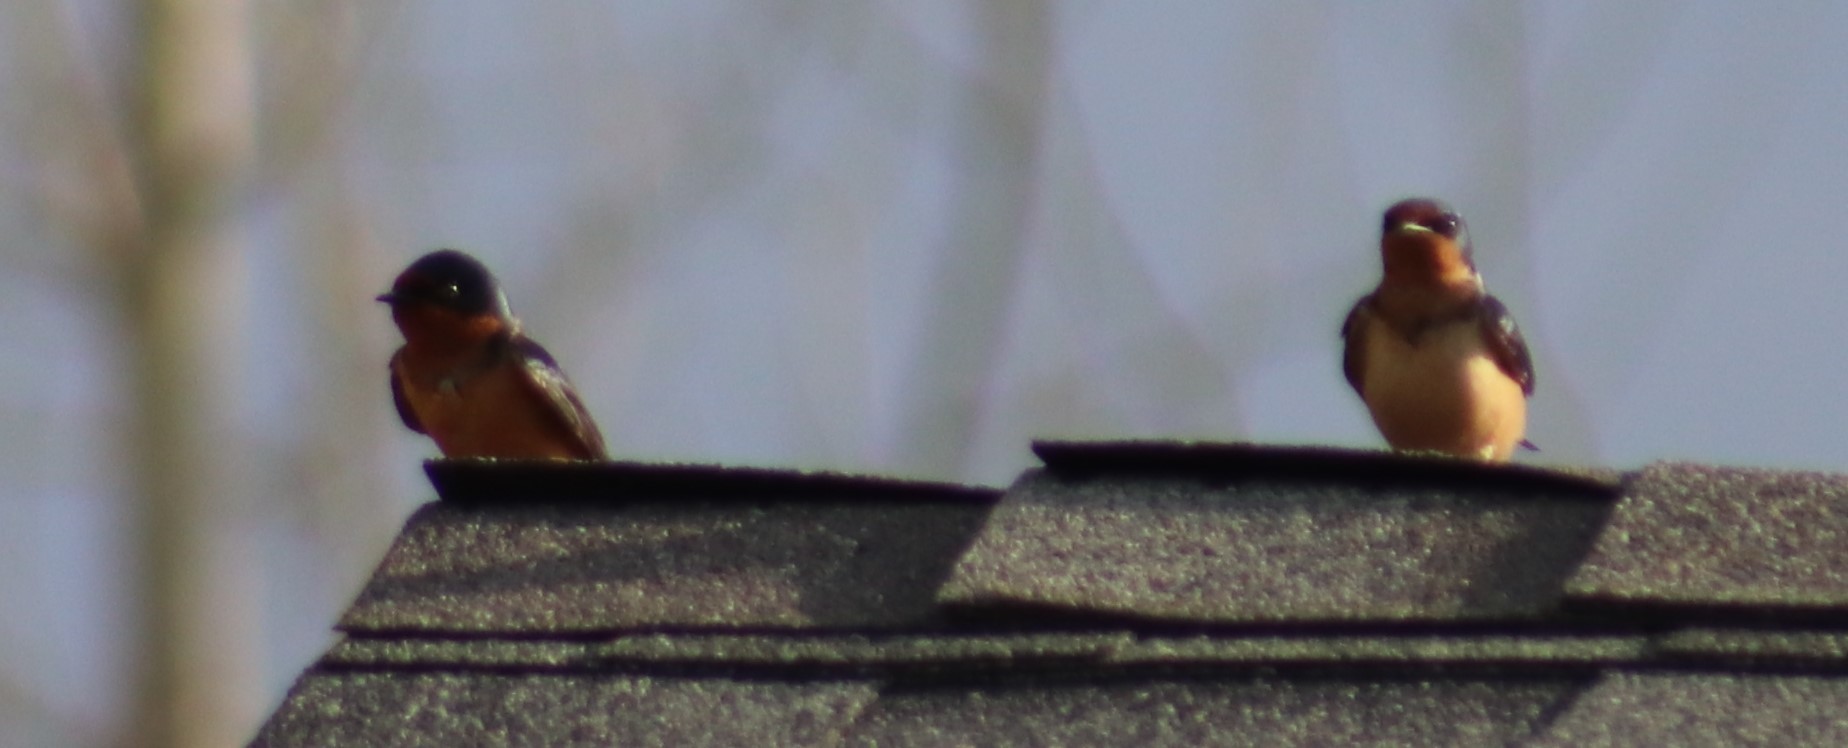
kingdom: Animalia
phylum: Chordata
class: Aves
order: Passeriformes
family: Hirundinidae
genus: Hirundo
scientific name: Hirundo rustica
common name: Barn swallow
